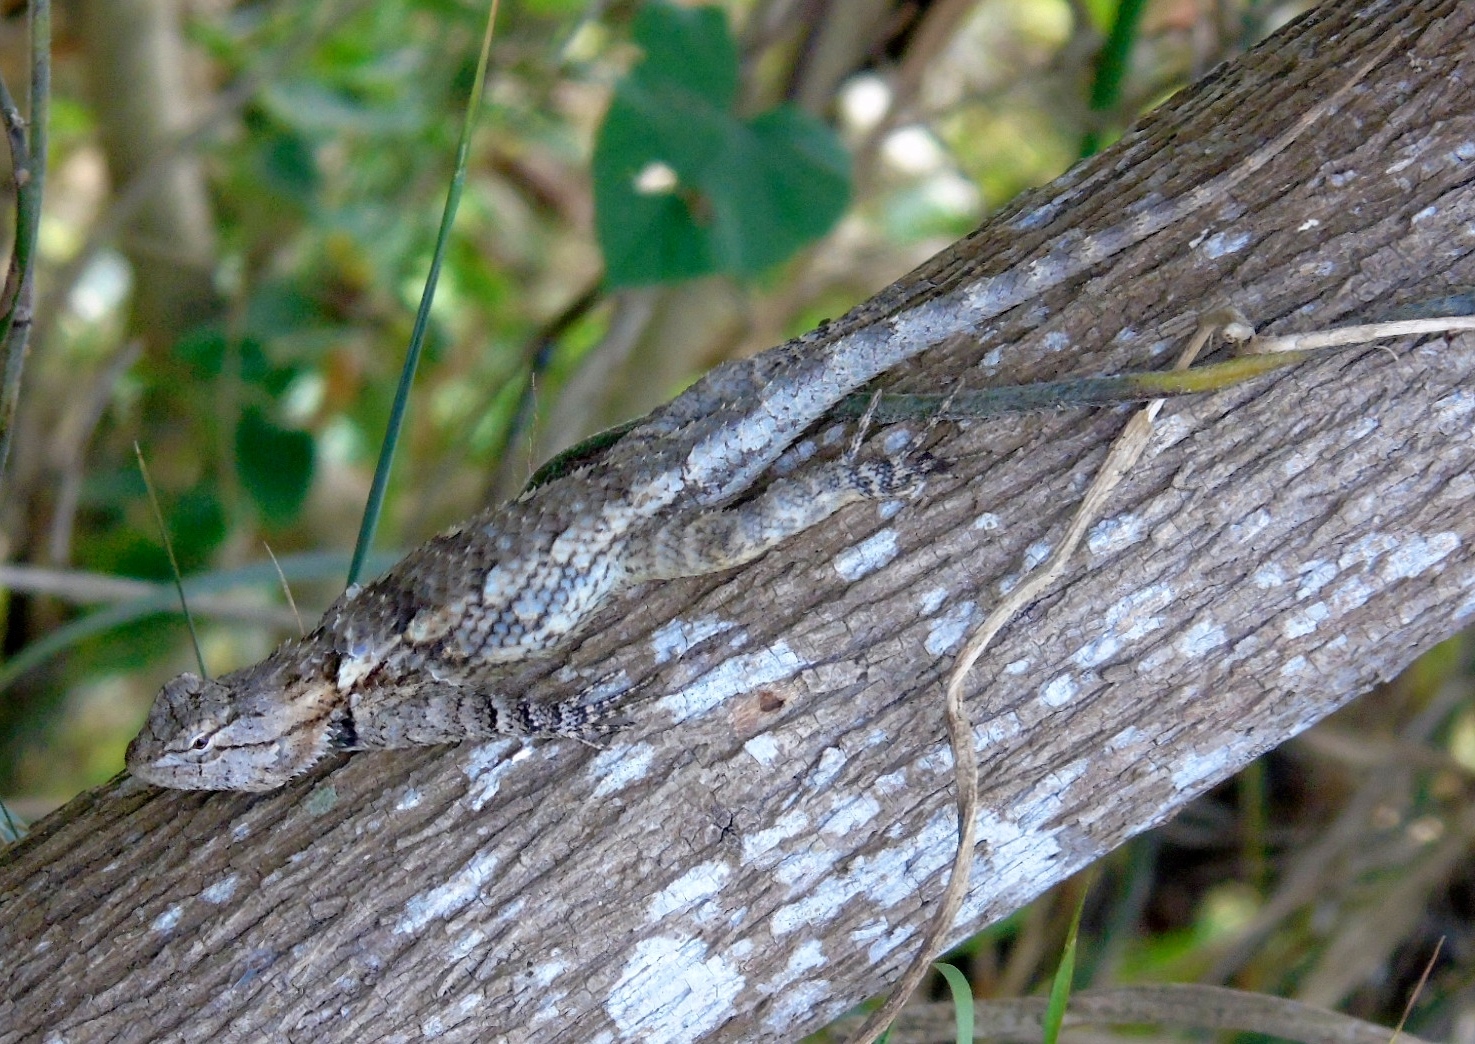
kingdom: Animalia
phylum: Chordata
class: Squamata
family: Phrynosomatidae
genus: Sceloporus
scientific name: Sceloporus clarkii
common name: Clark's spiny lizard
